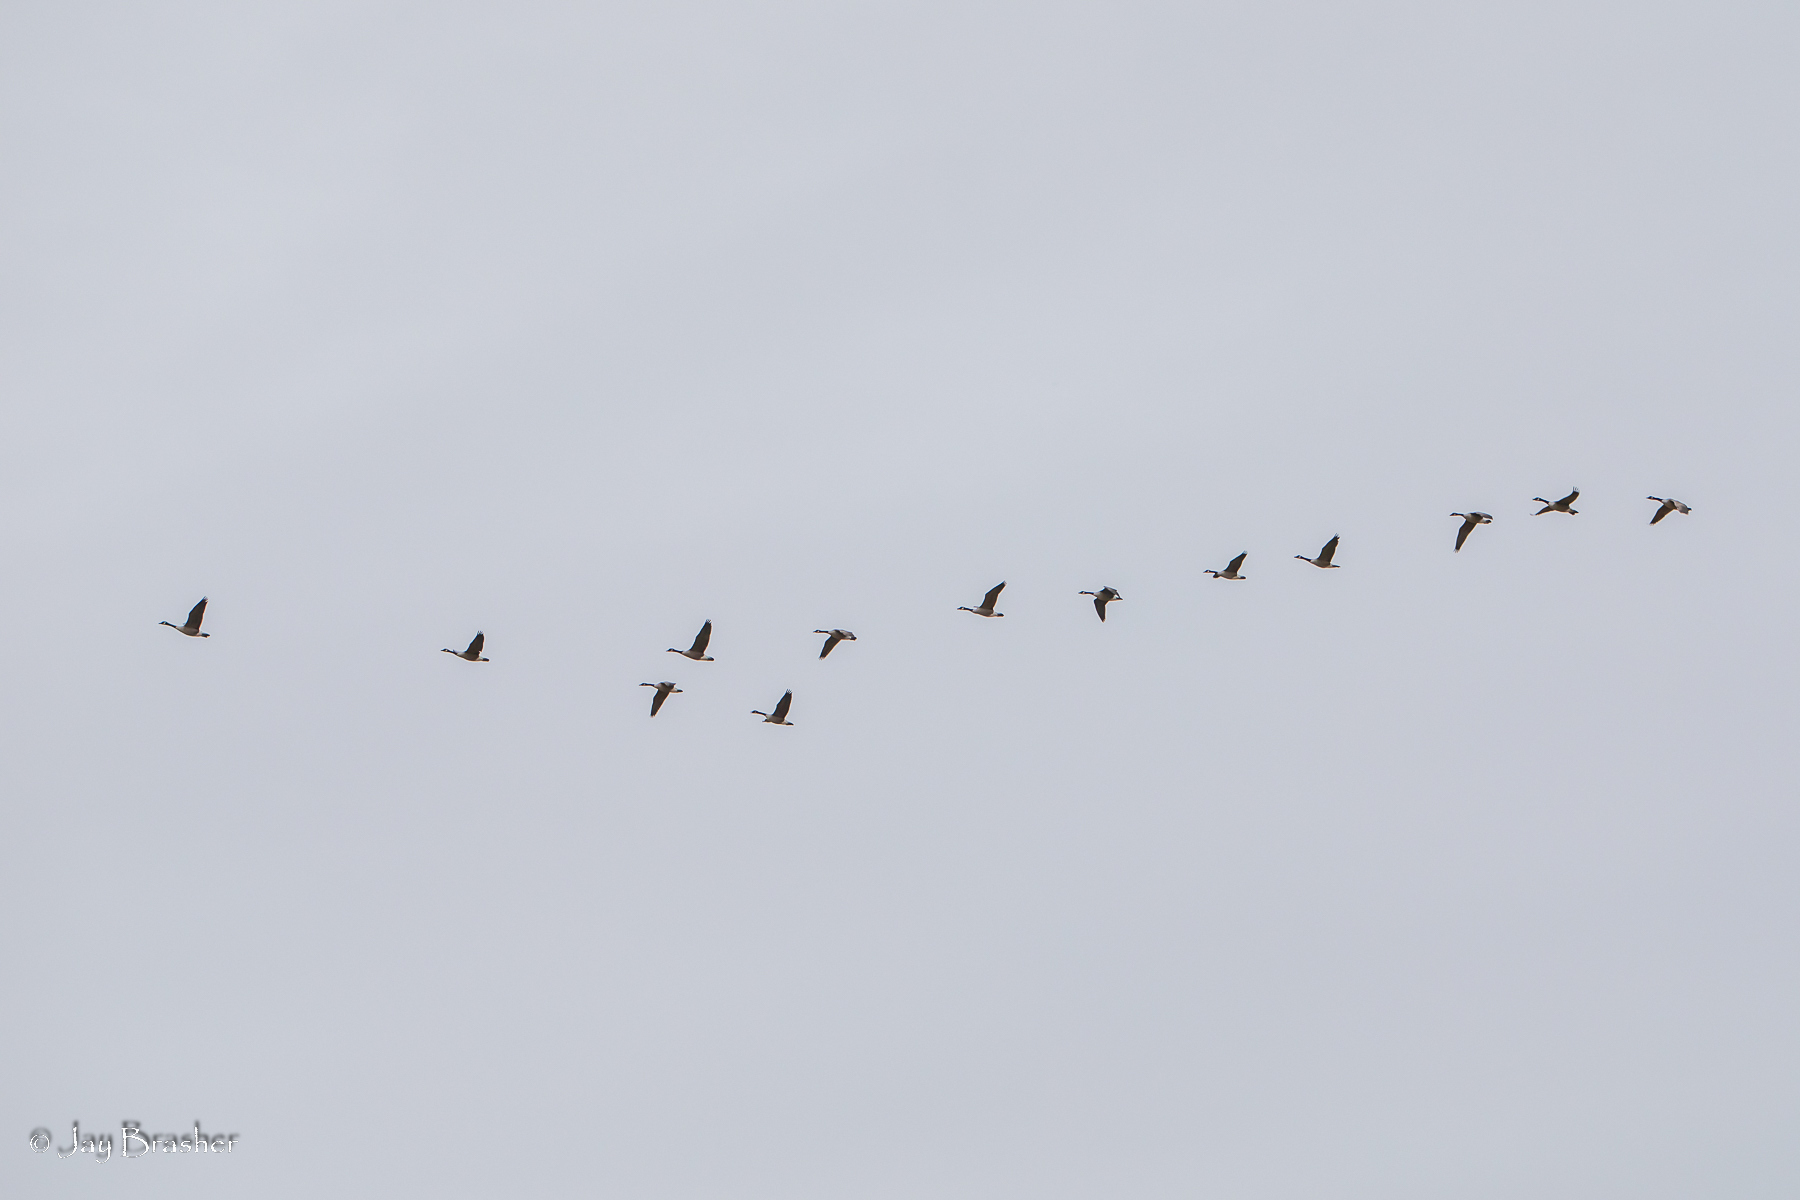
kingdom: Animalia
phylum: Chordata
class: Aves
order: Anseriformes
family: Anatidae
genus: Branta
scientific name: Branta canadensis
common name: Canada goose
